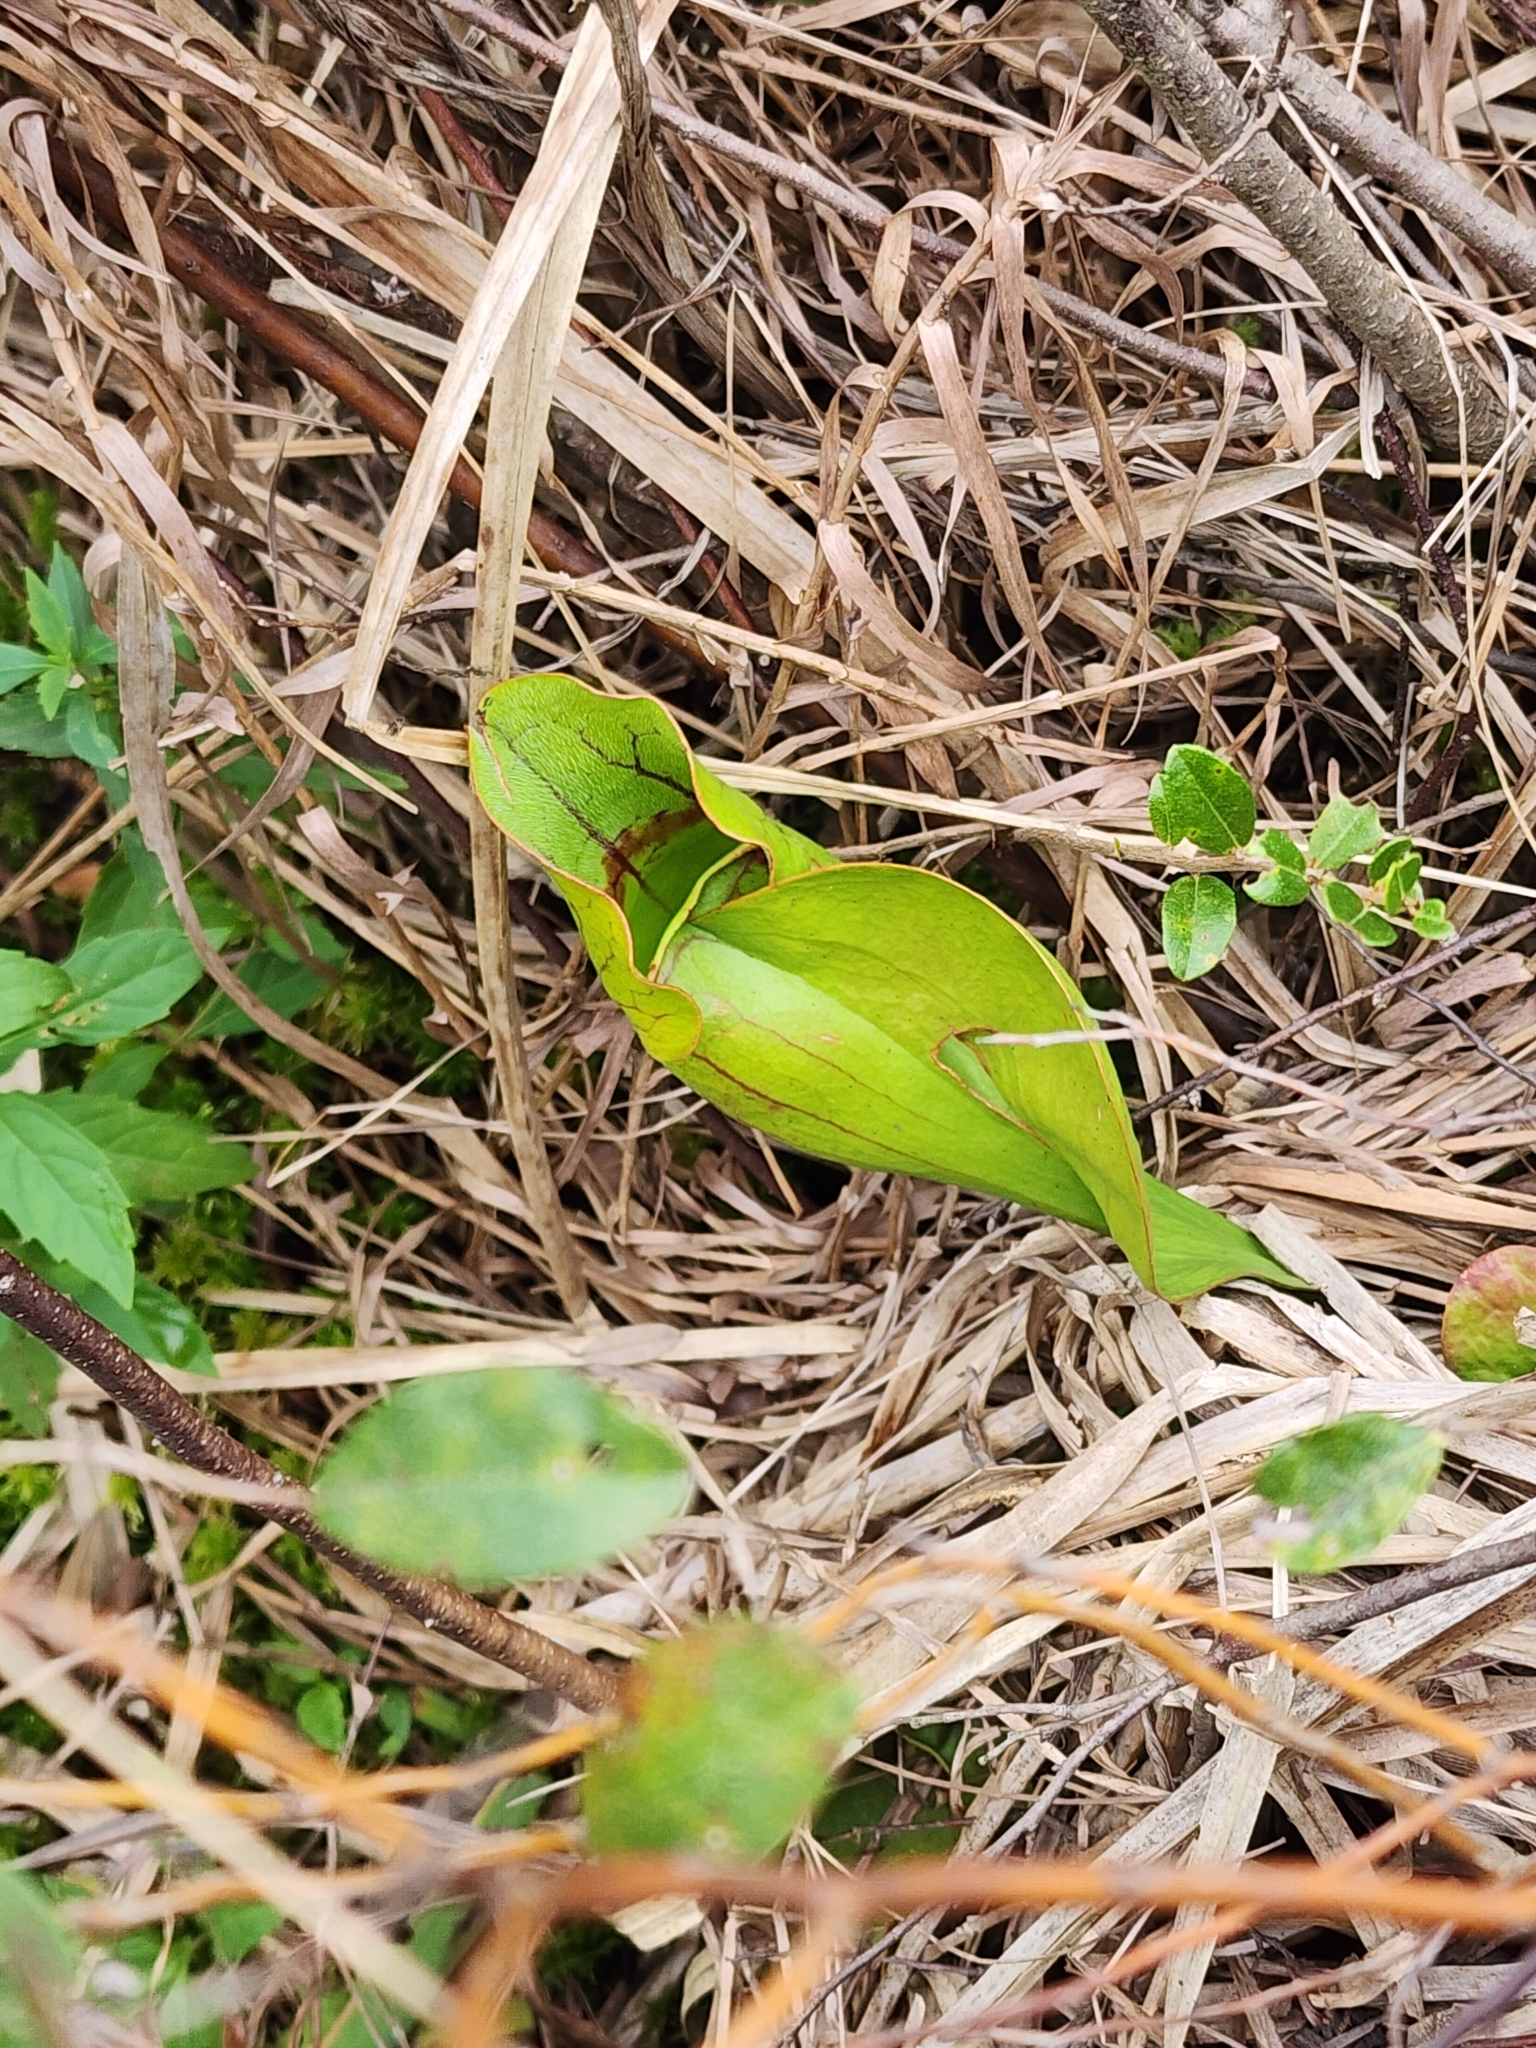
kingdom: Plantae
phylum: Tracheophyta
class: Magnoliopsida
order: Ericales
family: Sarraceniaceae
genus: Sarracenia
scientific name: Sarracenia purpurea
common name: Pitcherplant
